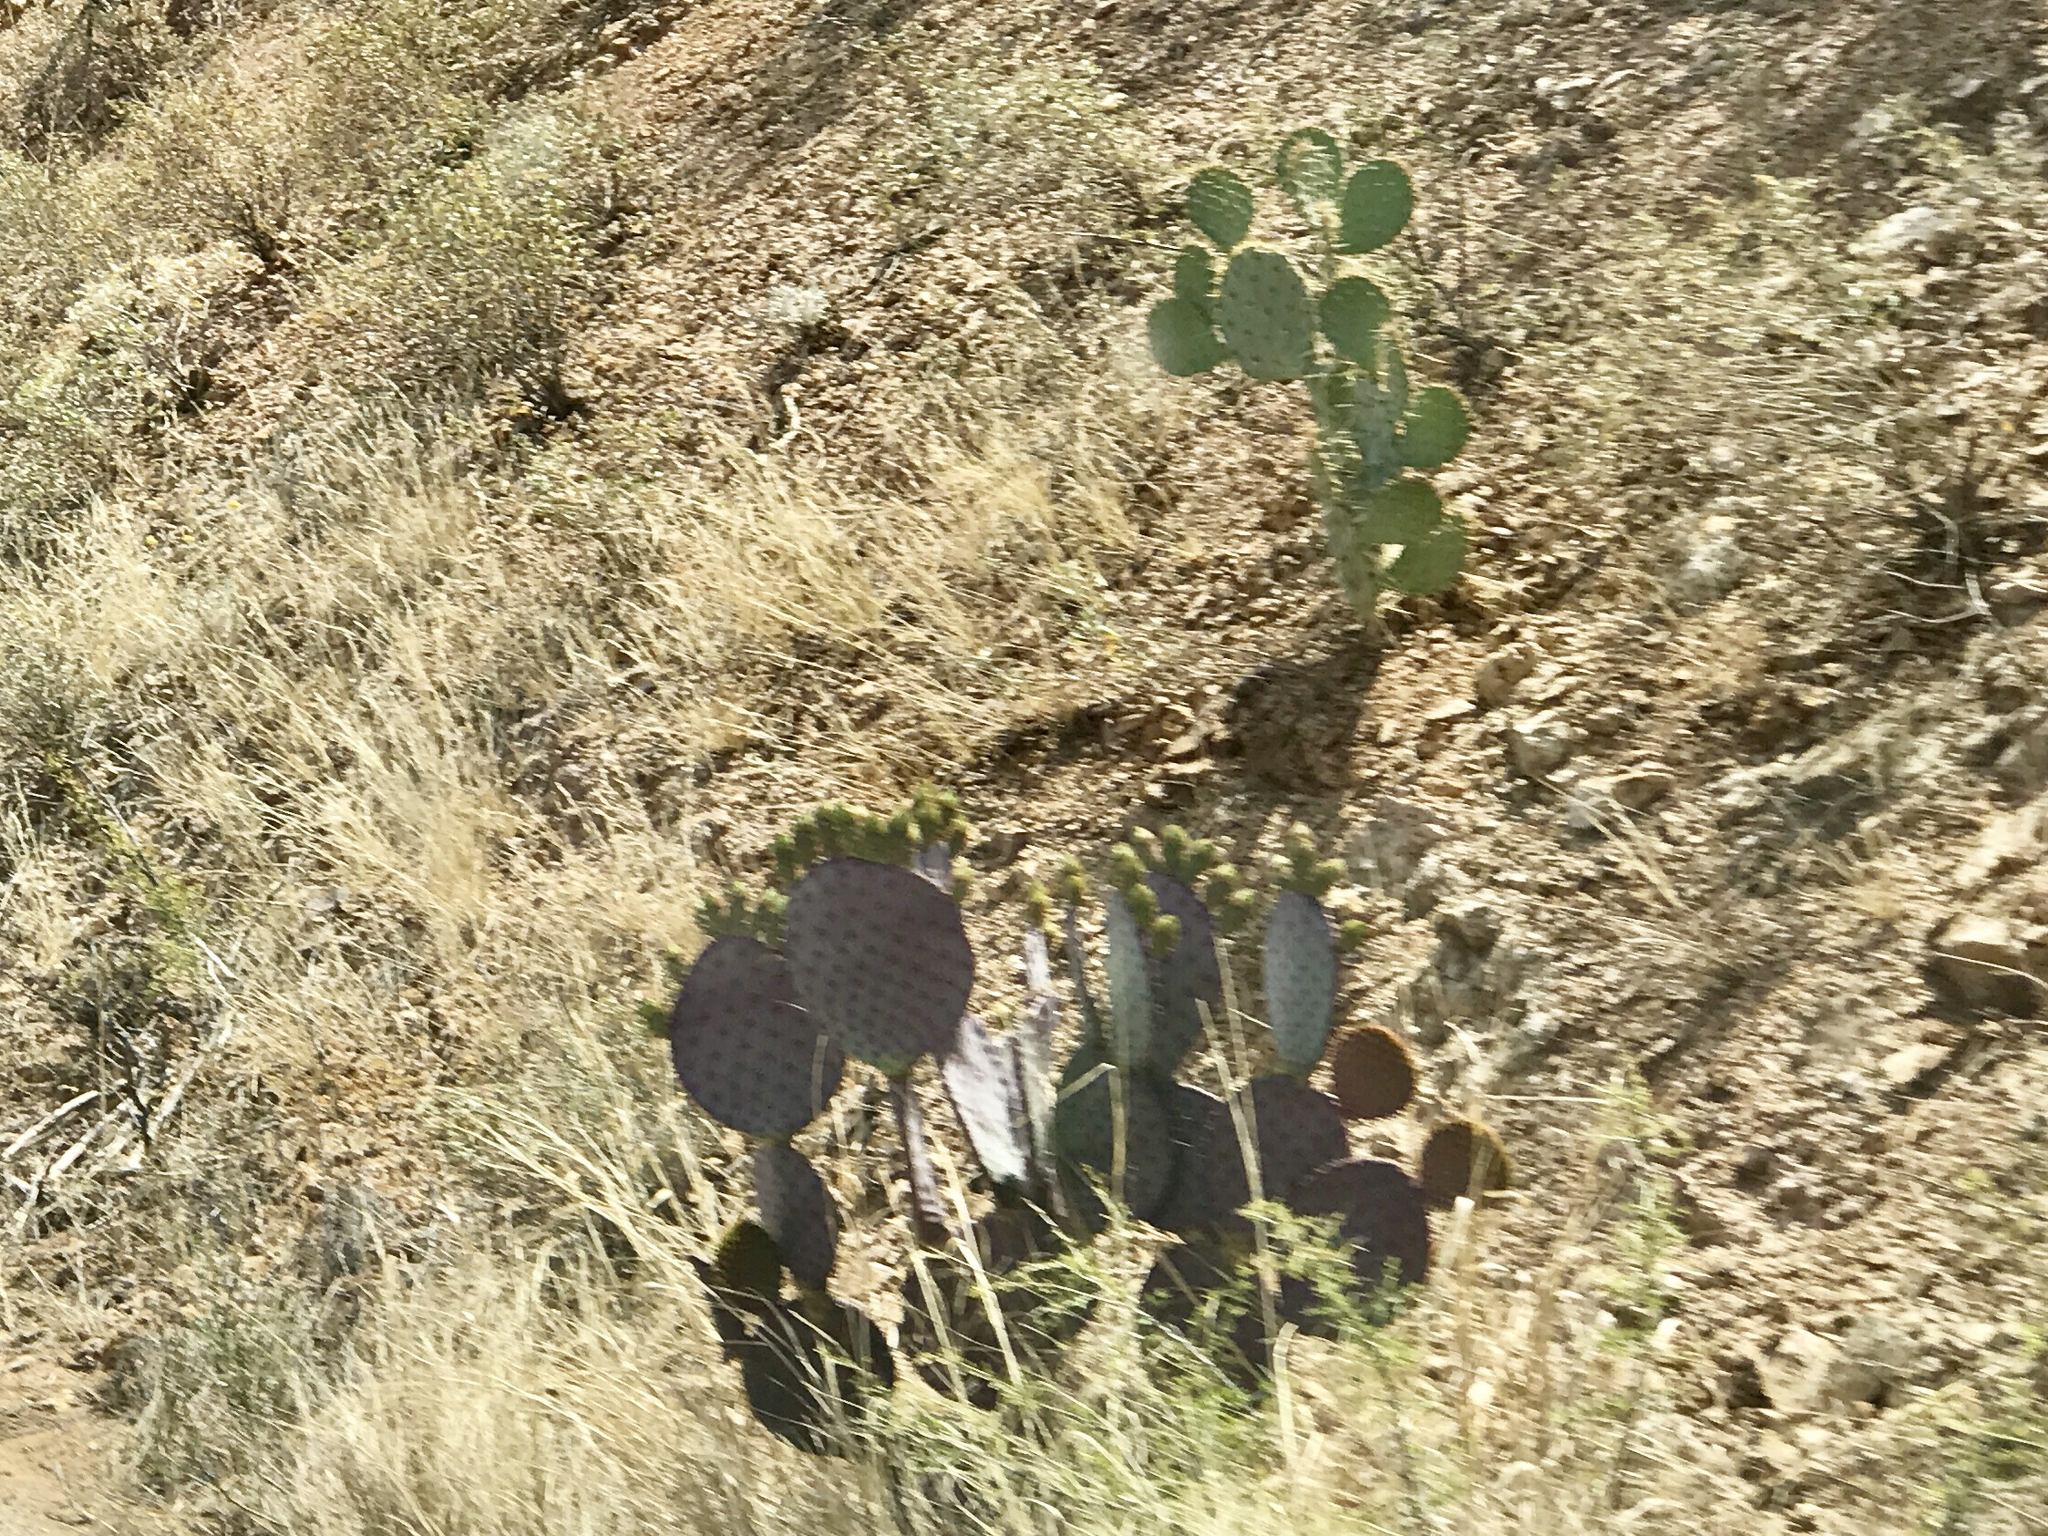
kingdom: Plantae
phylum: Tracheophyta
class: Magnoliopsida
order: Caryophyllales
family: Cactaceae
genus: Opuntia
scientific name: Opuntia gosseliniana
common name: Violet prickly-pear
